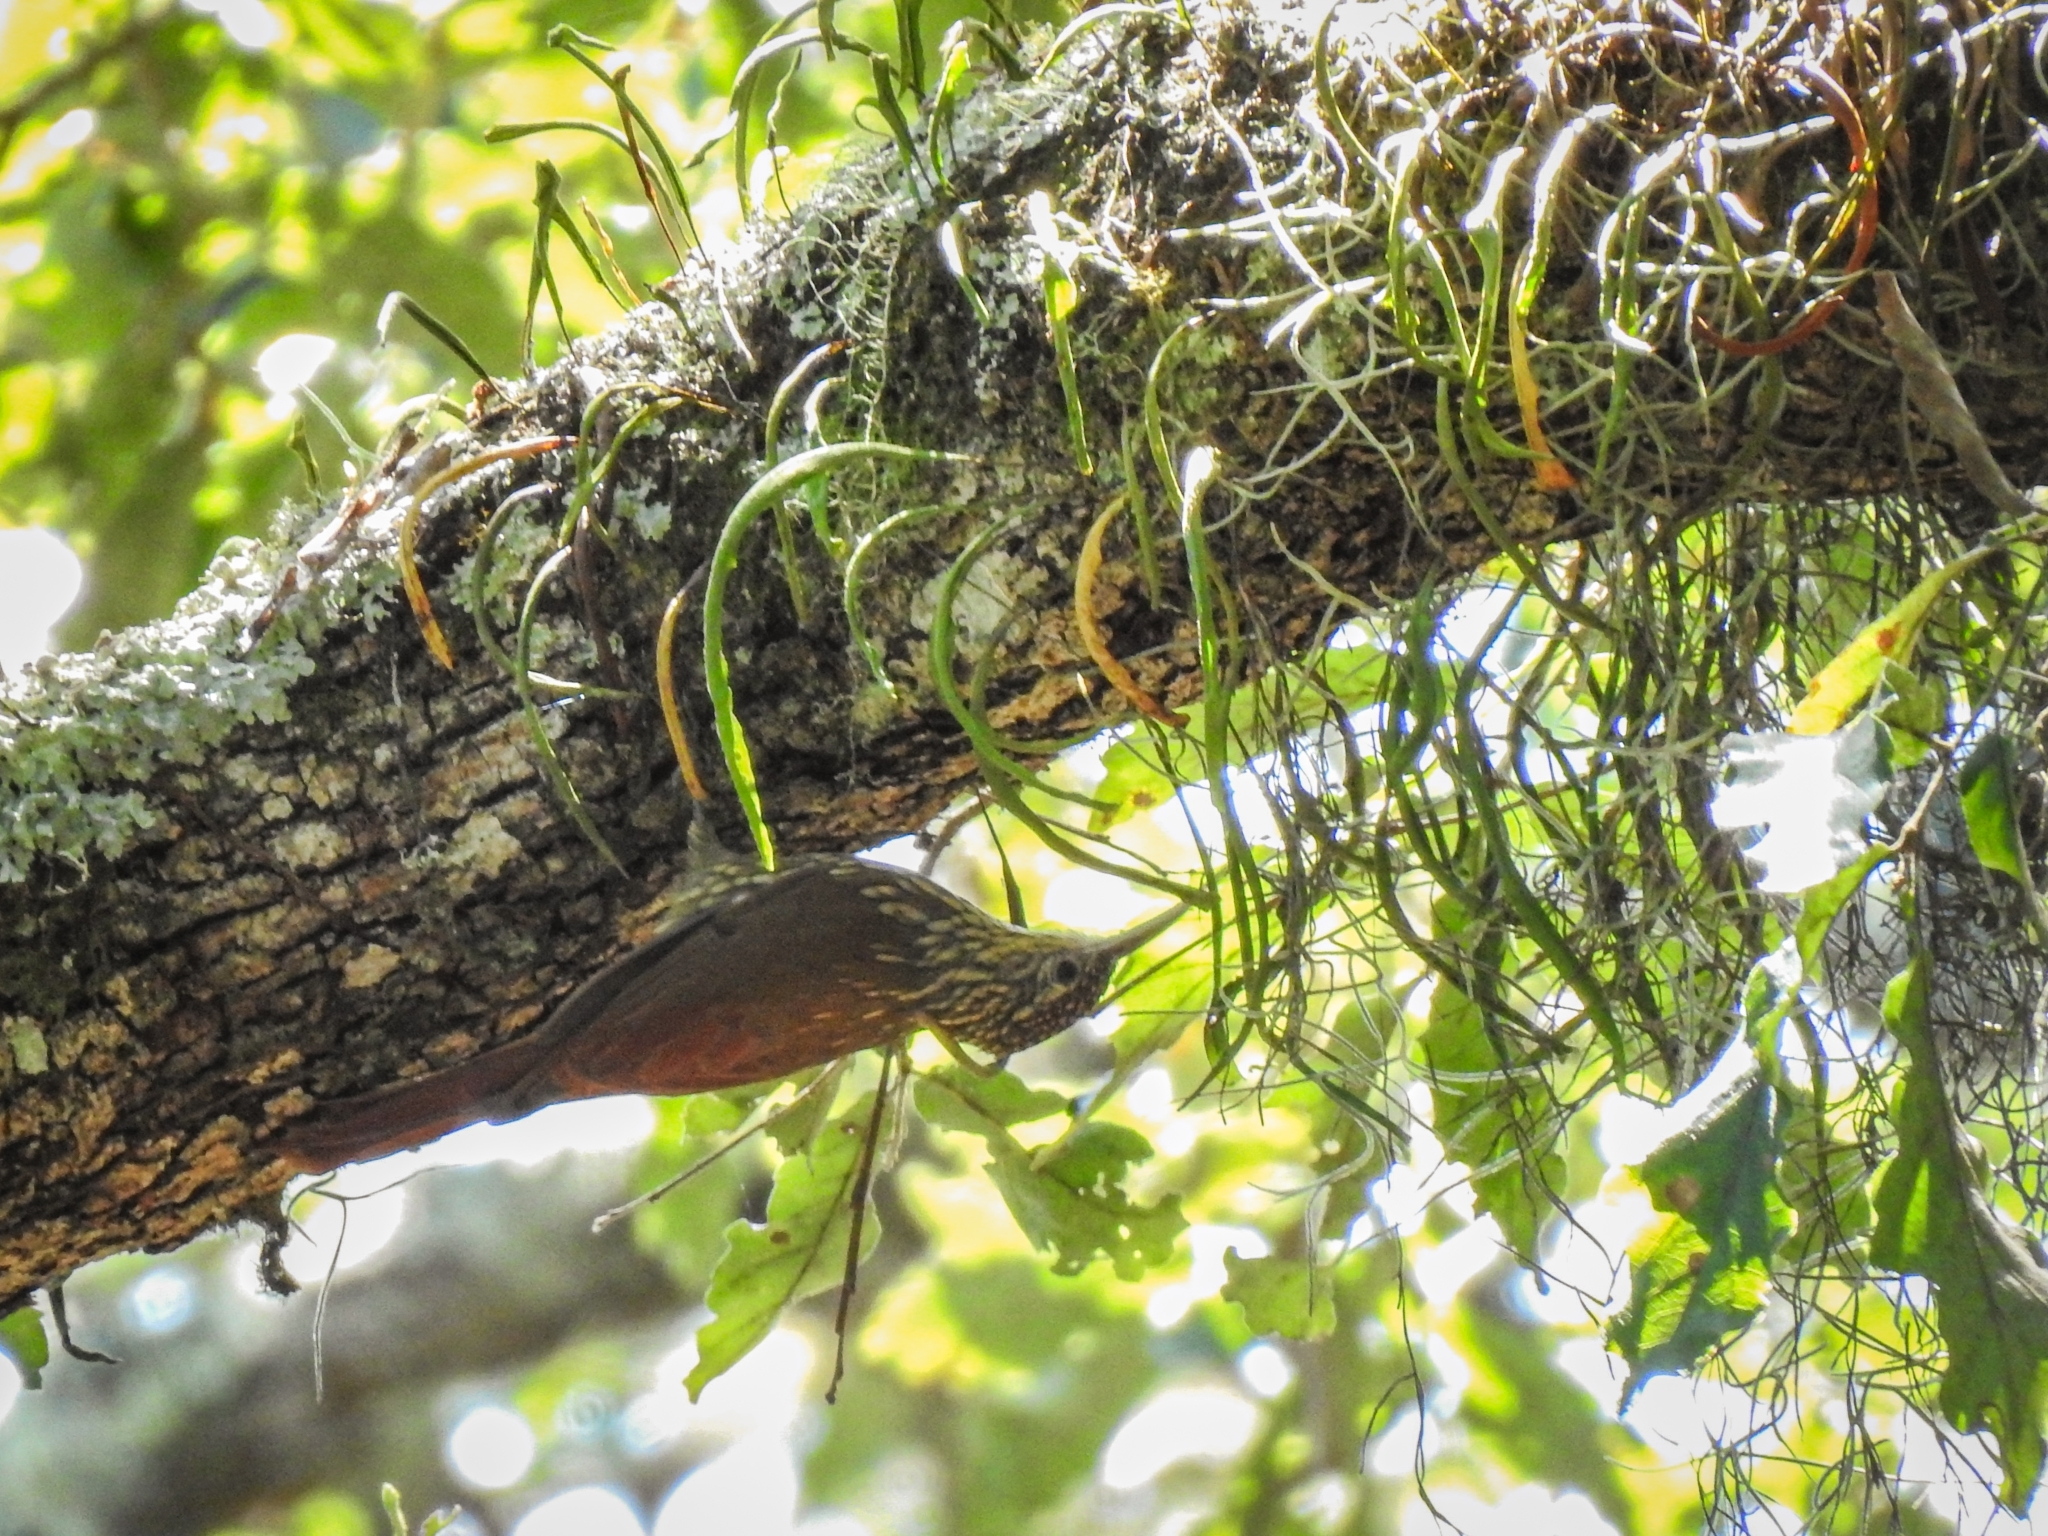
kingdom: Animalia
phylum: Chordata
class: Aves
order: Passeriformes
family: Furnariidae
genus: Lepidocolaptes
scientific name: Lepidocolaptes affinis
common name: Spot-crowned woodcreeper
